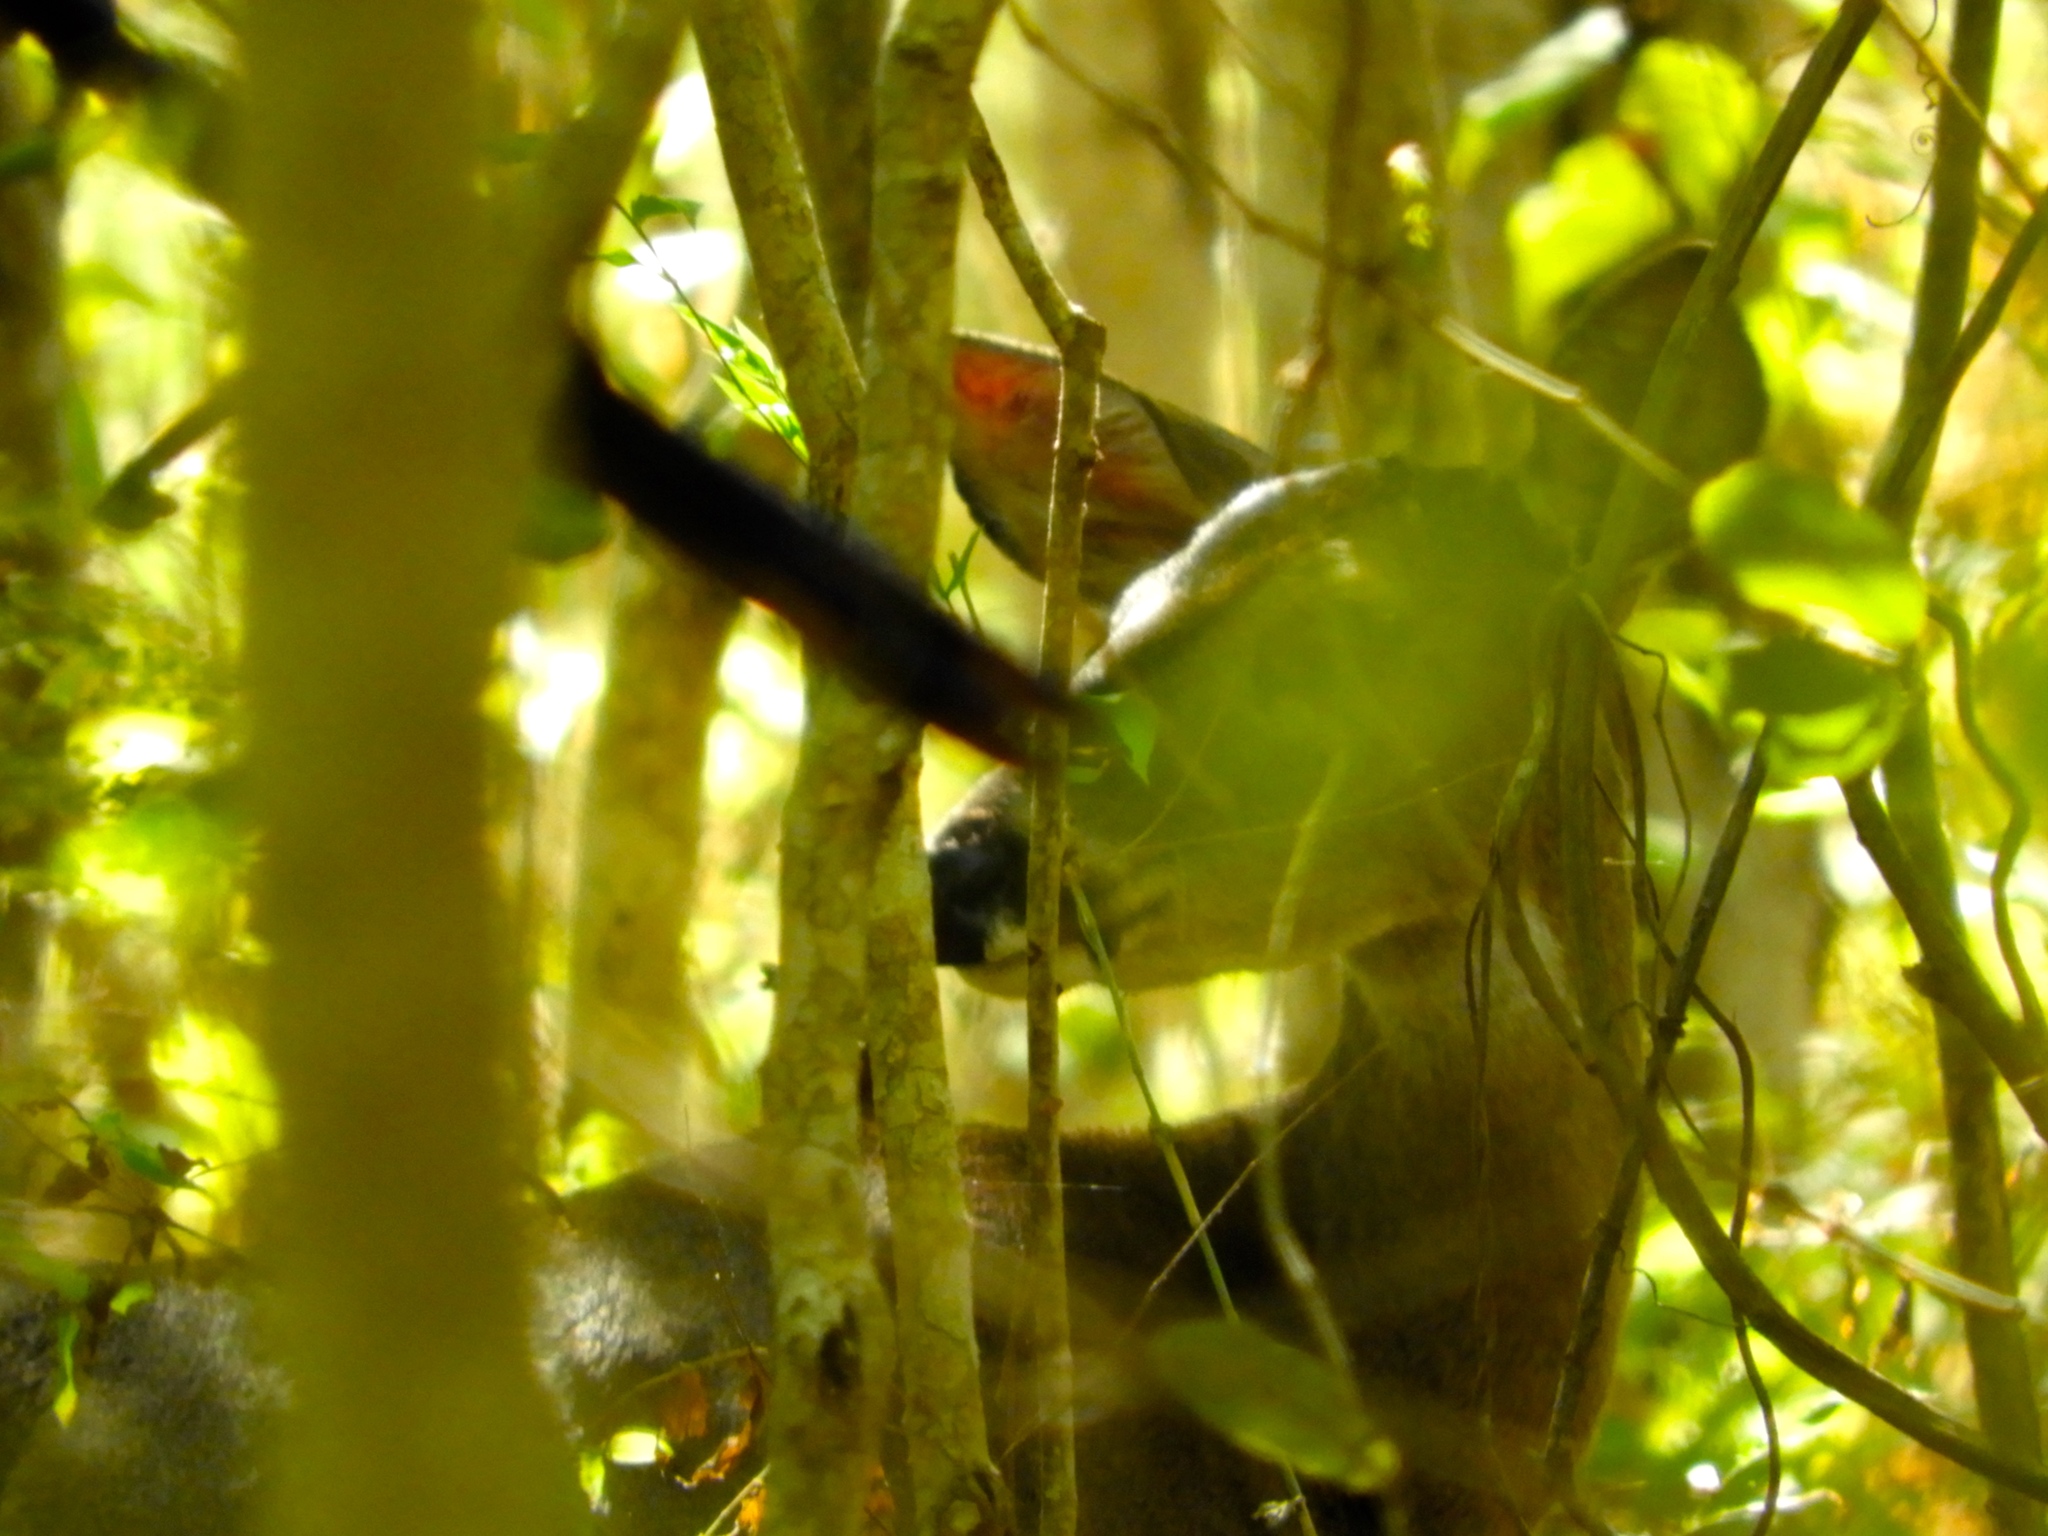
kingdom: Animalia
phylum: Chordata
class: Mammalia
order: Artiodactyla
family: Cervidae
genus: Odocoileus
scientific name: Odocoileus virginianus
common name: White-tailed deer
